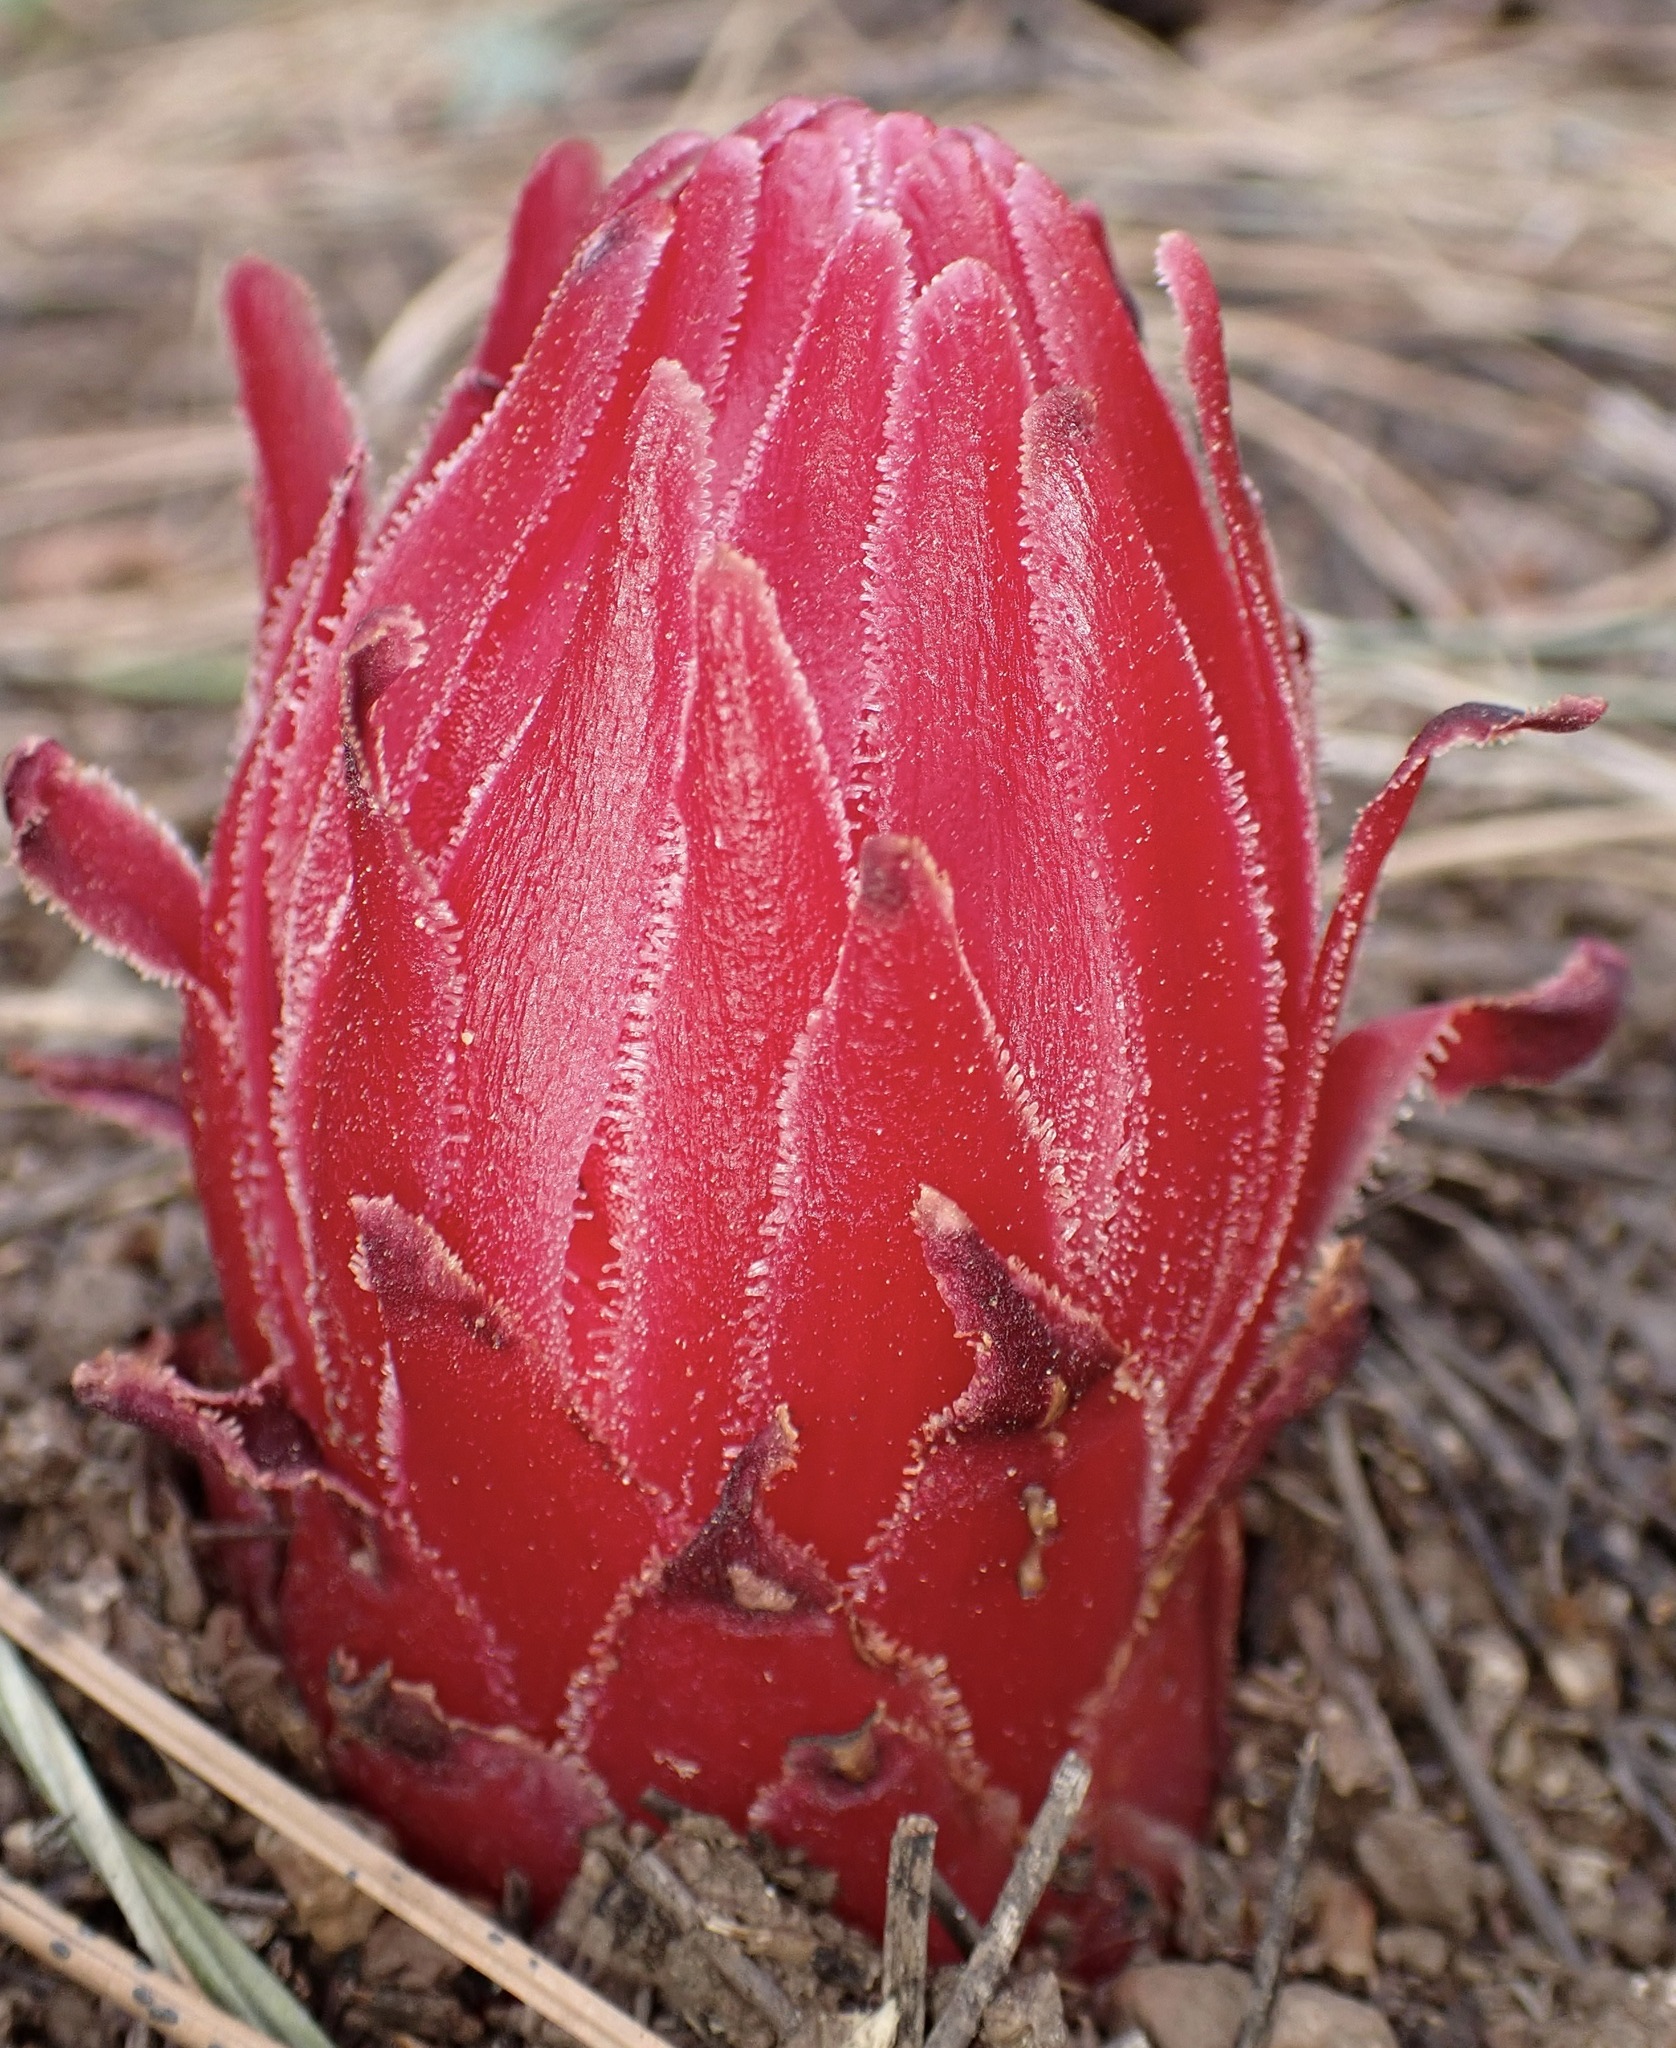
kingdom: Plantae
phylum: Tracheophyta
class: Magnoliopsida
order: Ericales
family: Ericaceae
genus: Sarcodes
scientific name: Sarcodes sanguinea
